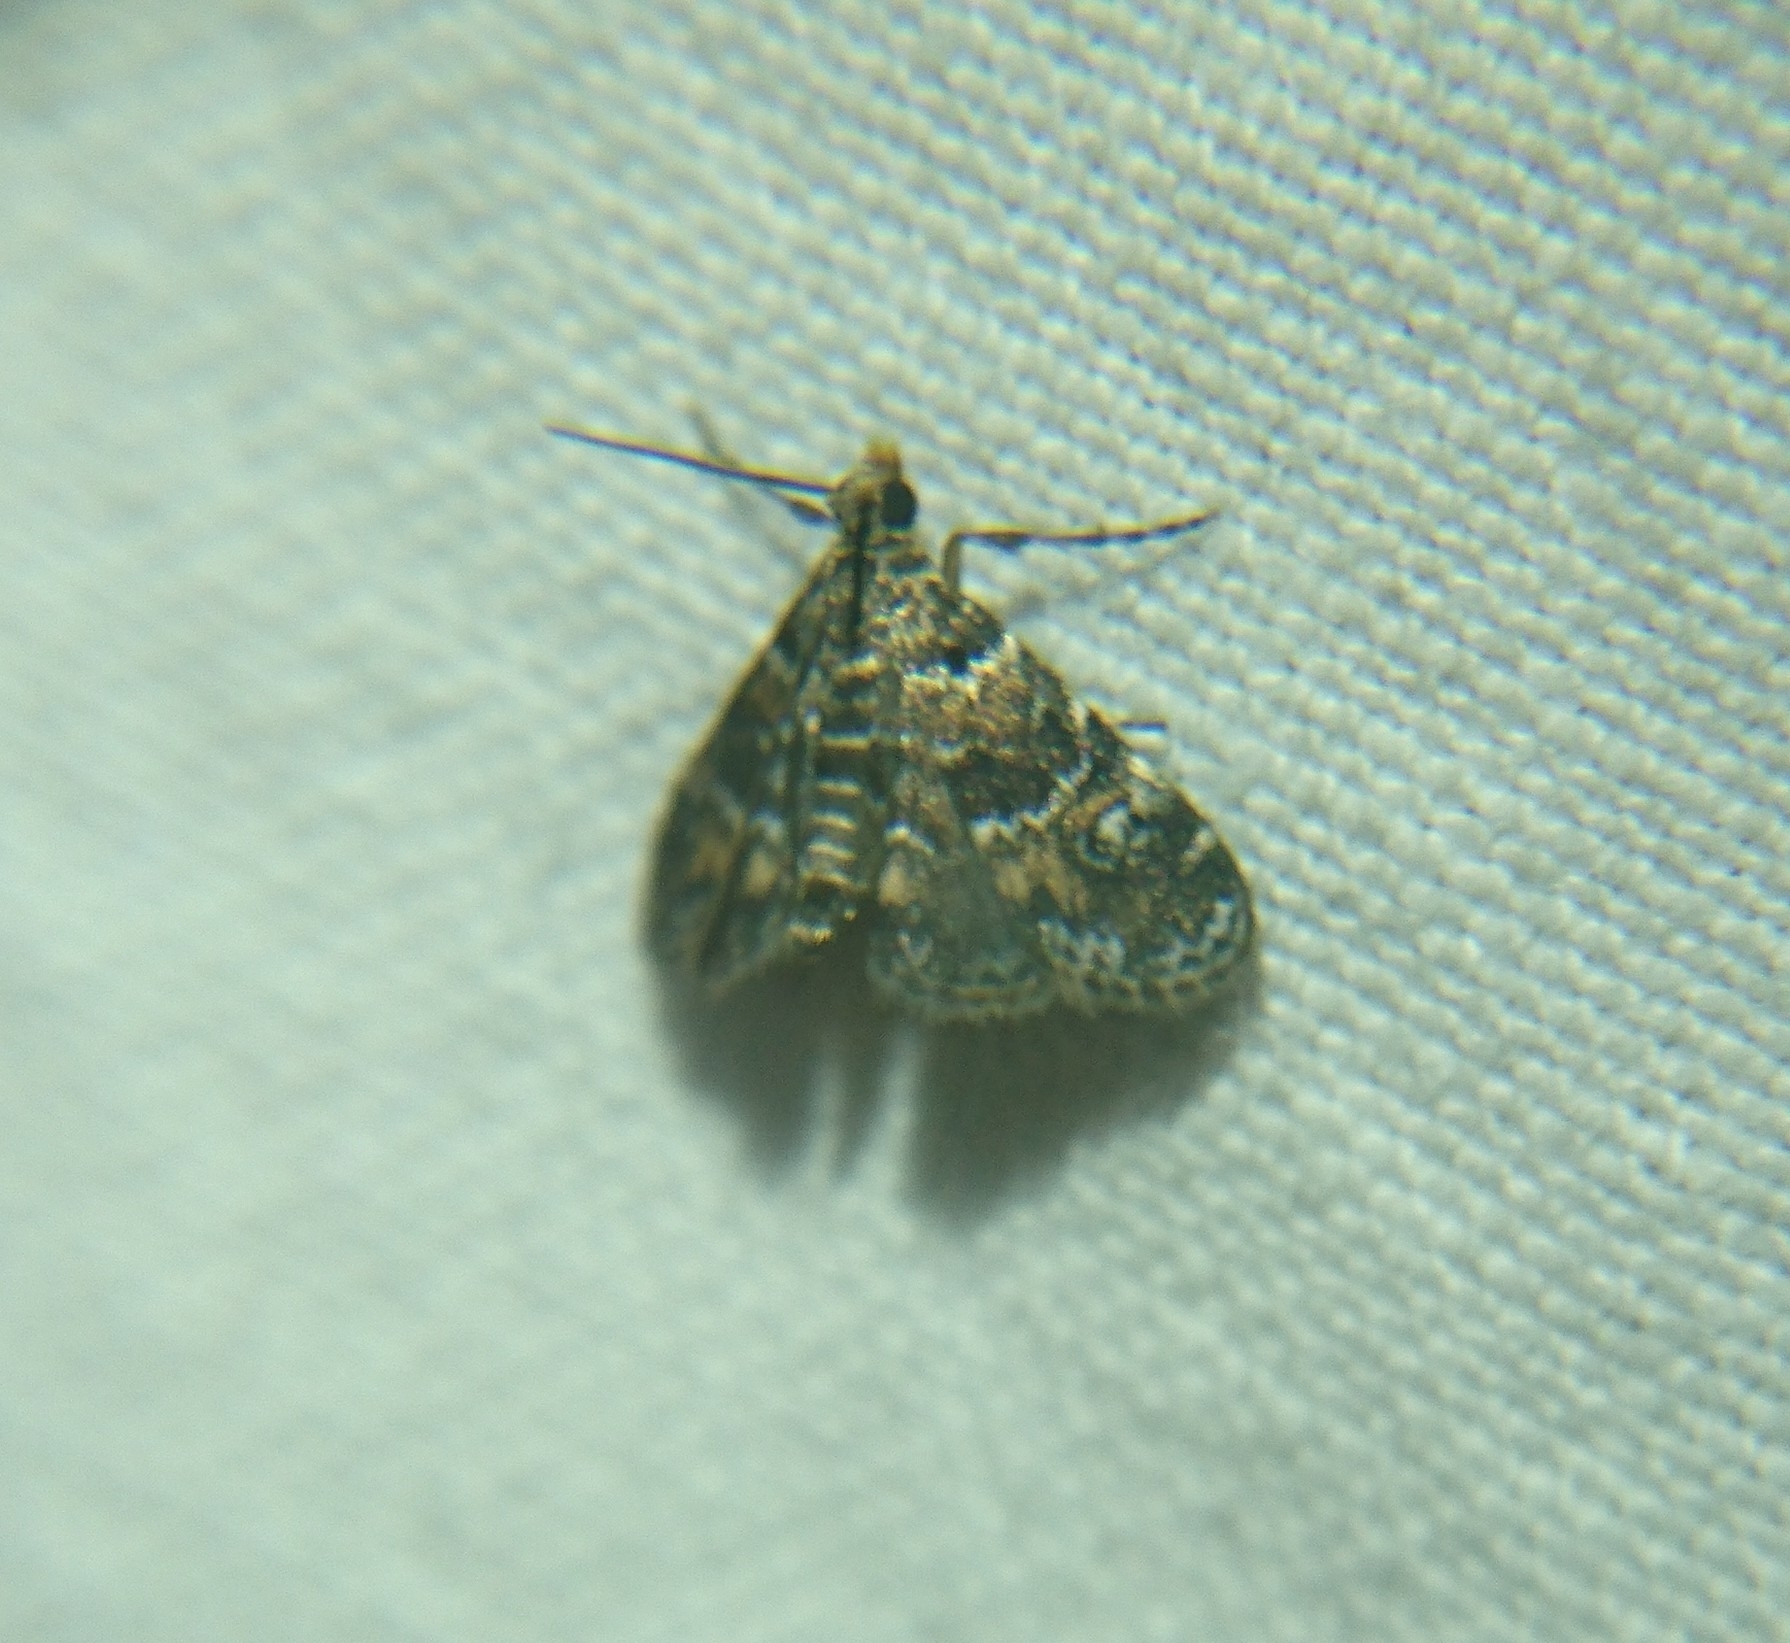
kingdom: Animalia
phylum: Arthropoda
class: Insecta
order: Lepidoptera
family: Crambidae
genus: Elophila
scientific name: Elophila obliteralis
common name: Waterlily leafcutter moth
